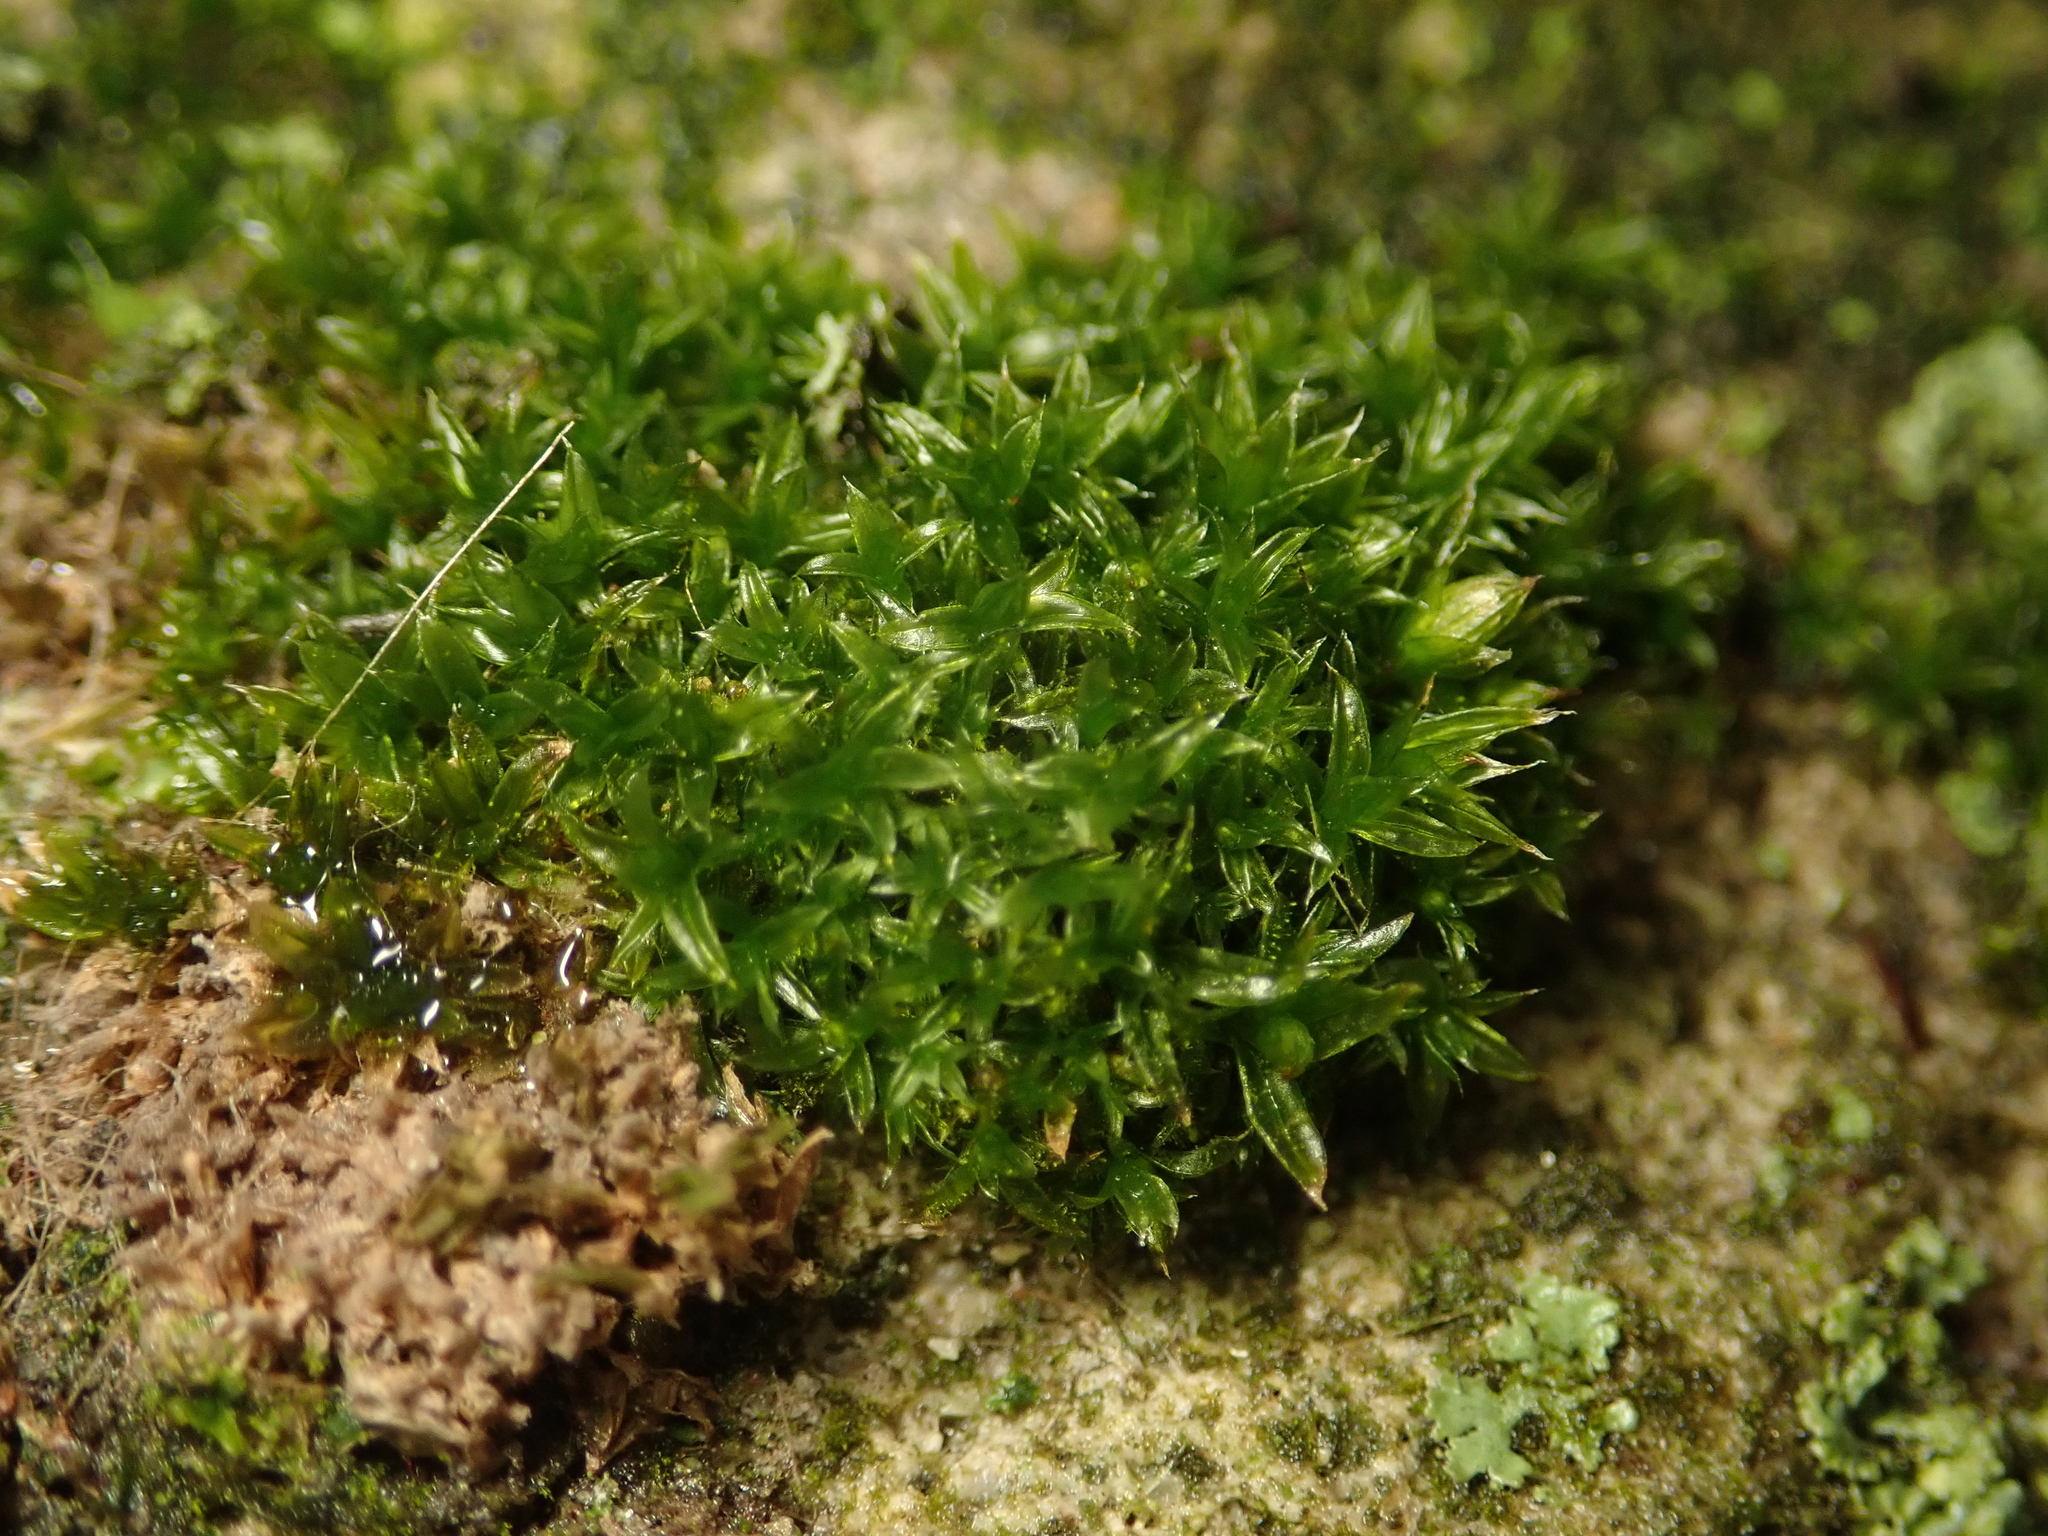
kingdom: Plantae
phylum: Bryophyta
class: Bryopsida
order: Orthotrichales
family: Orthotrichaceae
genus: Orthotrichum
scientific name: Orthotrichum diaphanum
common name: White-tipped bristle-moss
